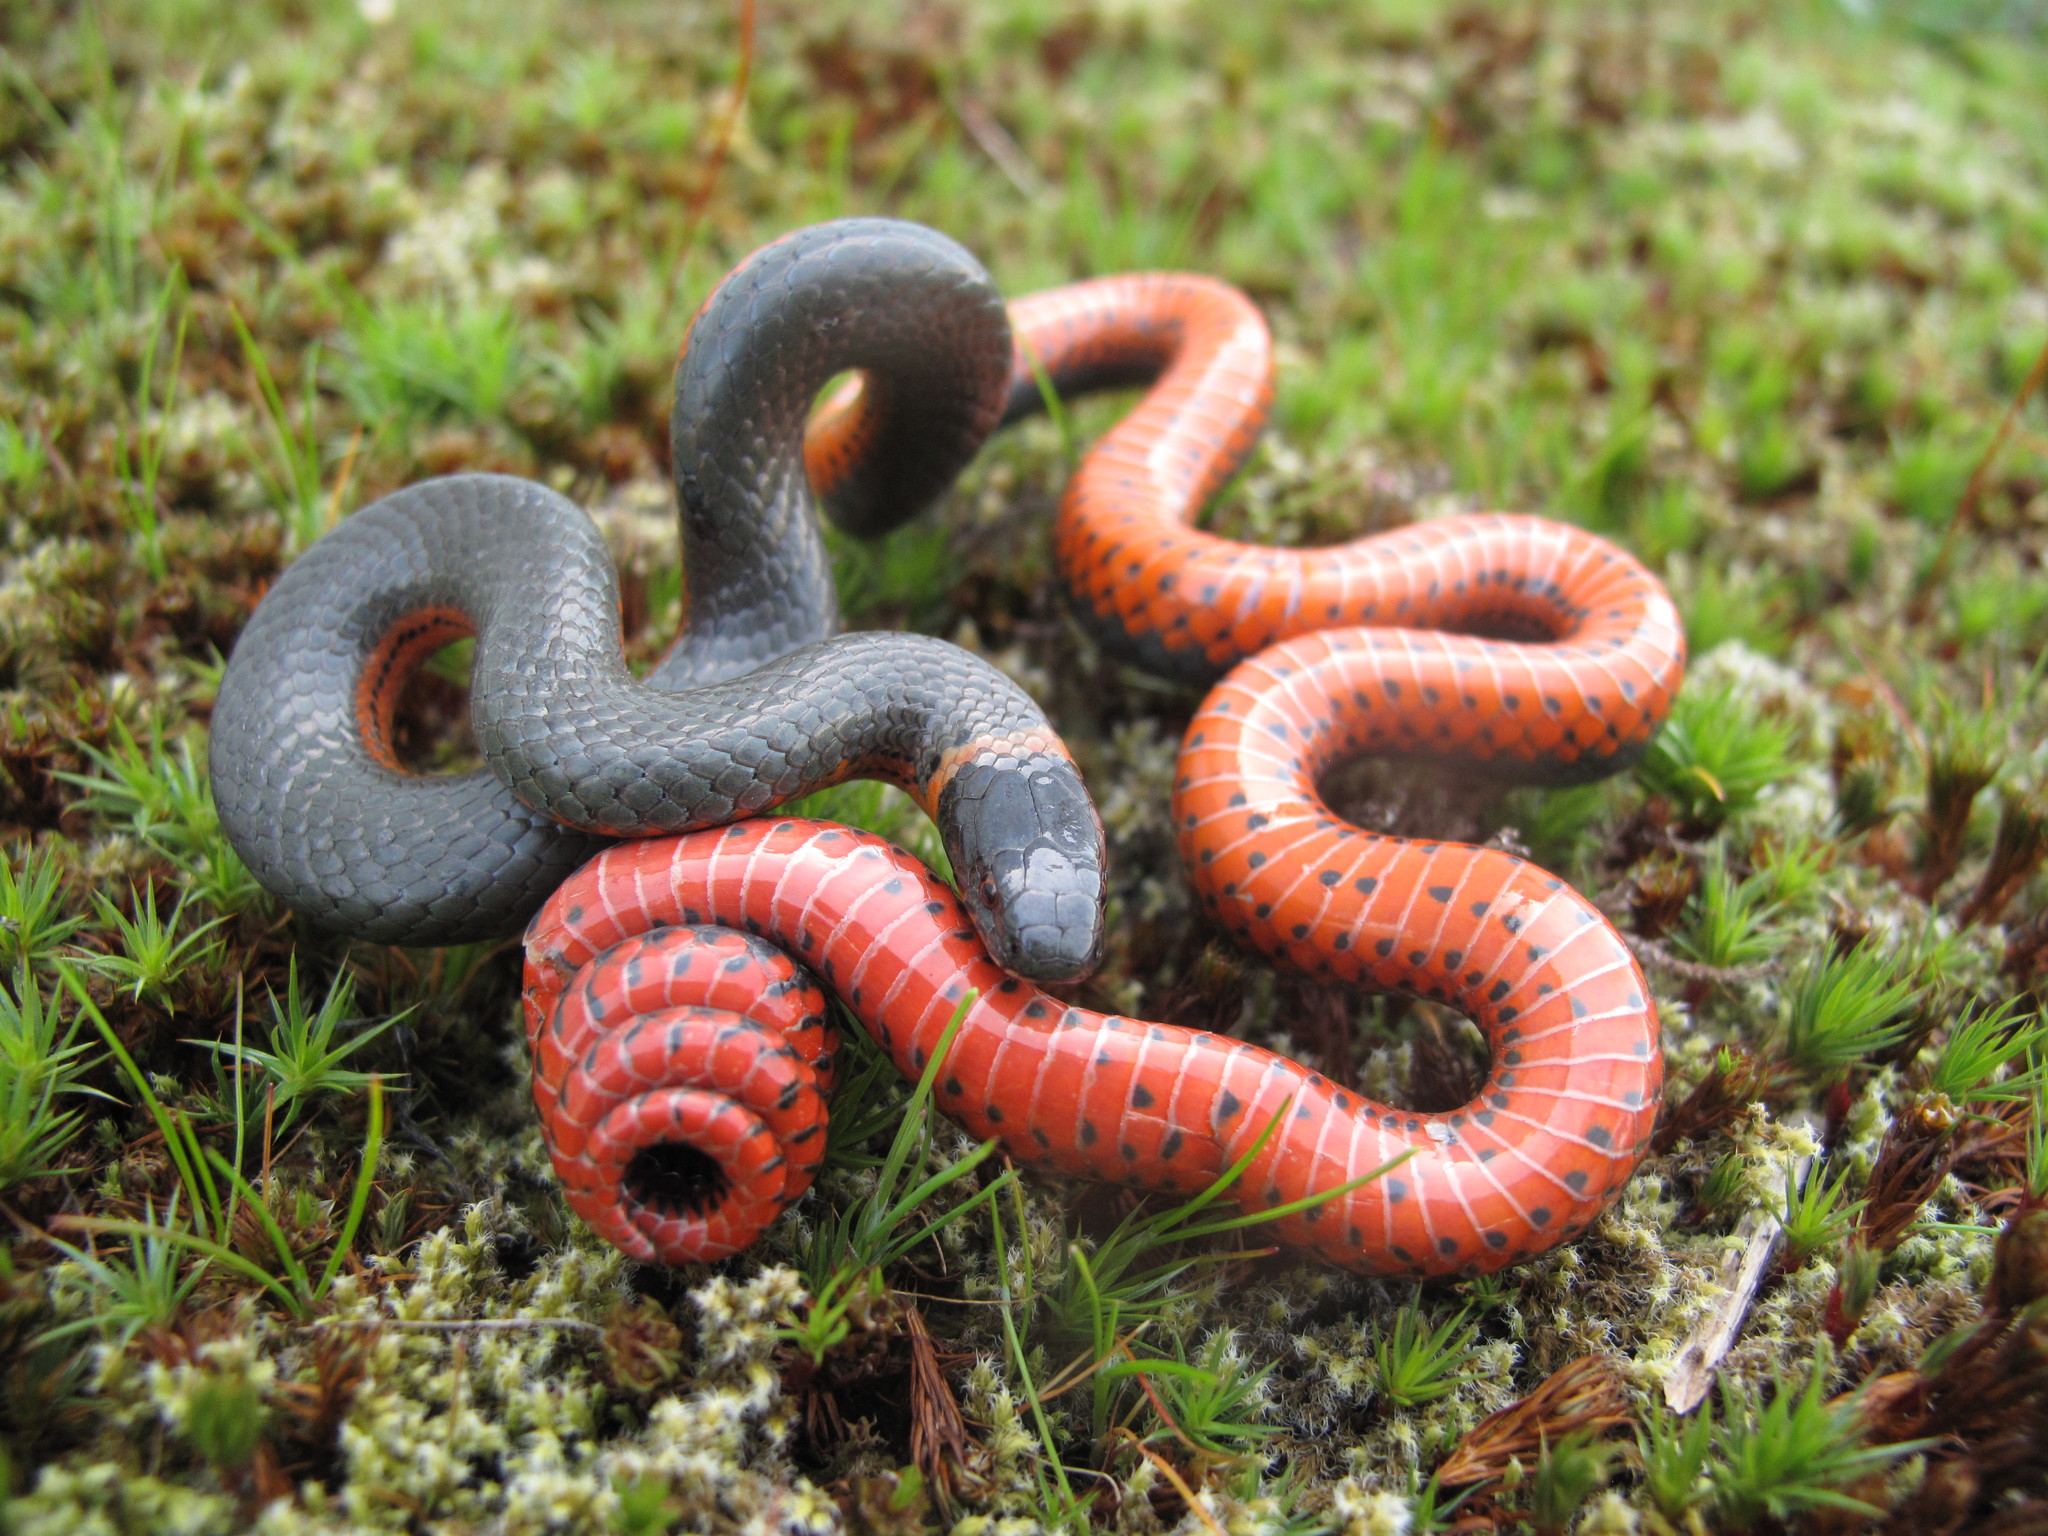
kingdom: Animalia
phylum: Chordata
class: Squamata
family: Colubridae
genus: Diadophis
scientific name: Diadophis punctatus
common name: Ringneck snake
